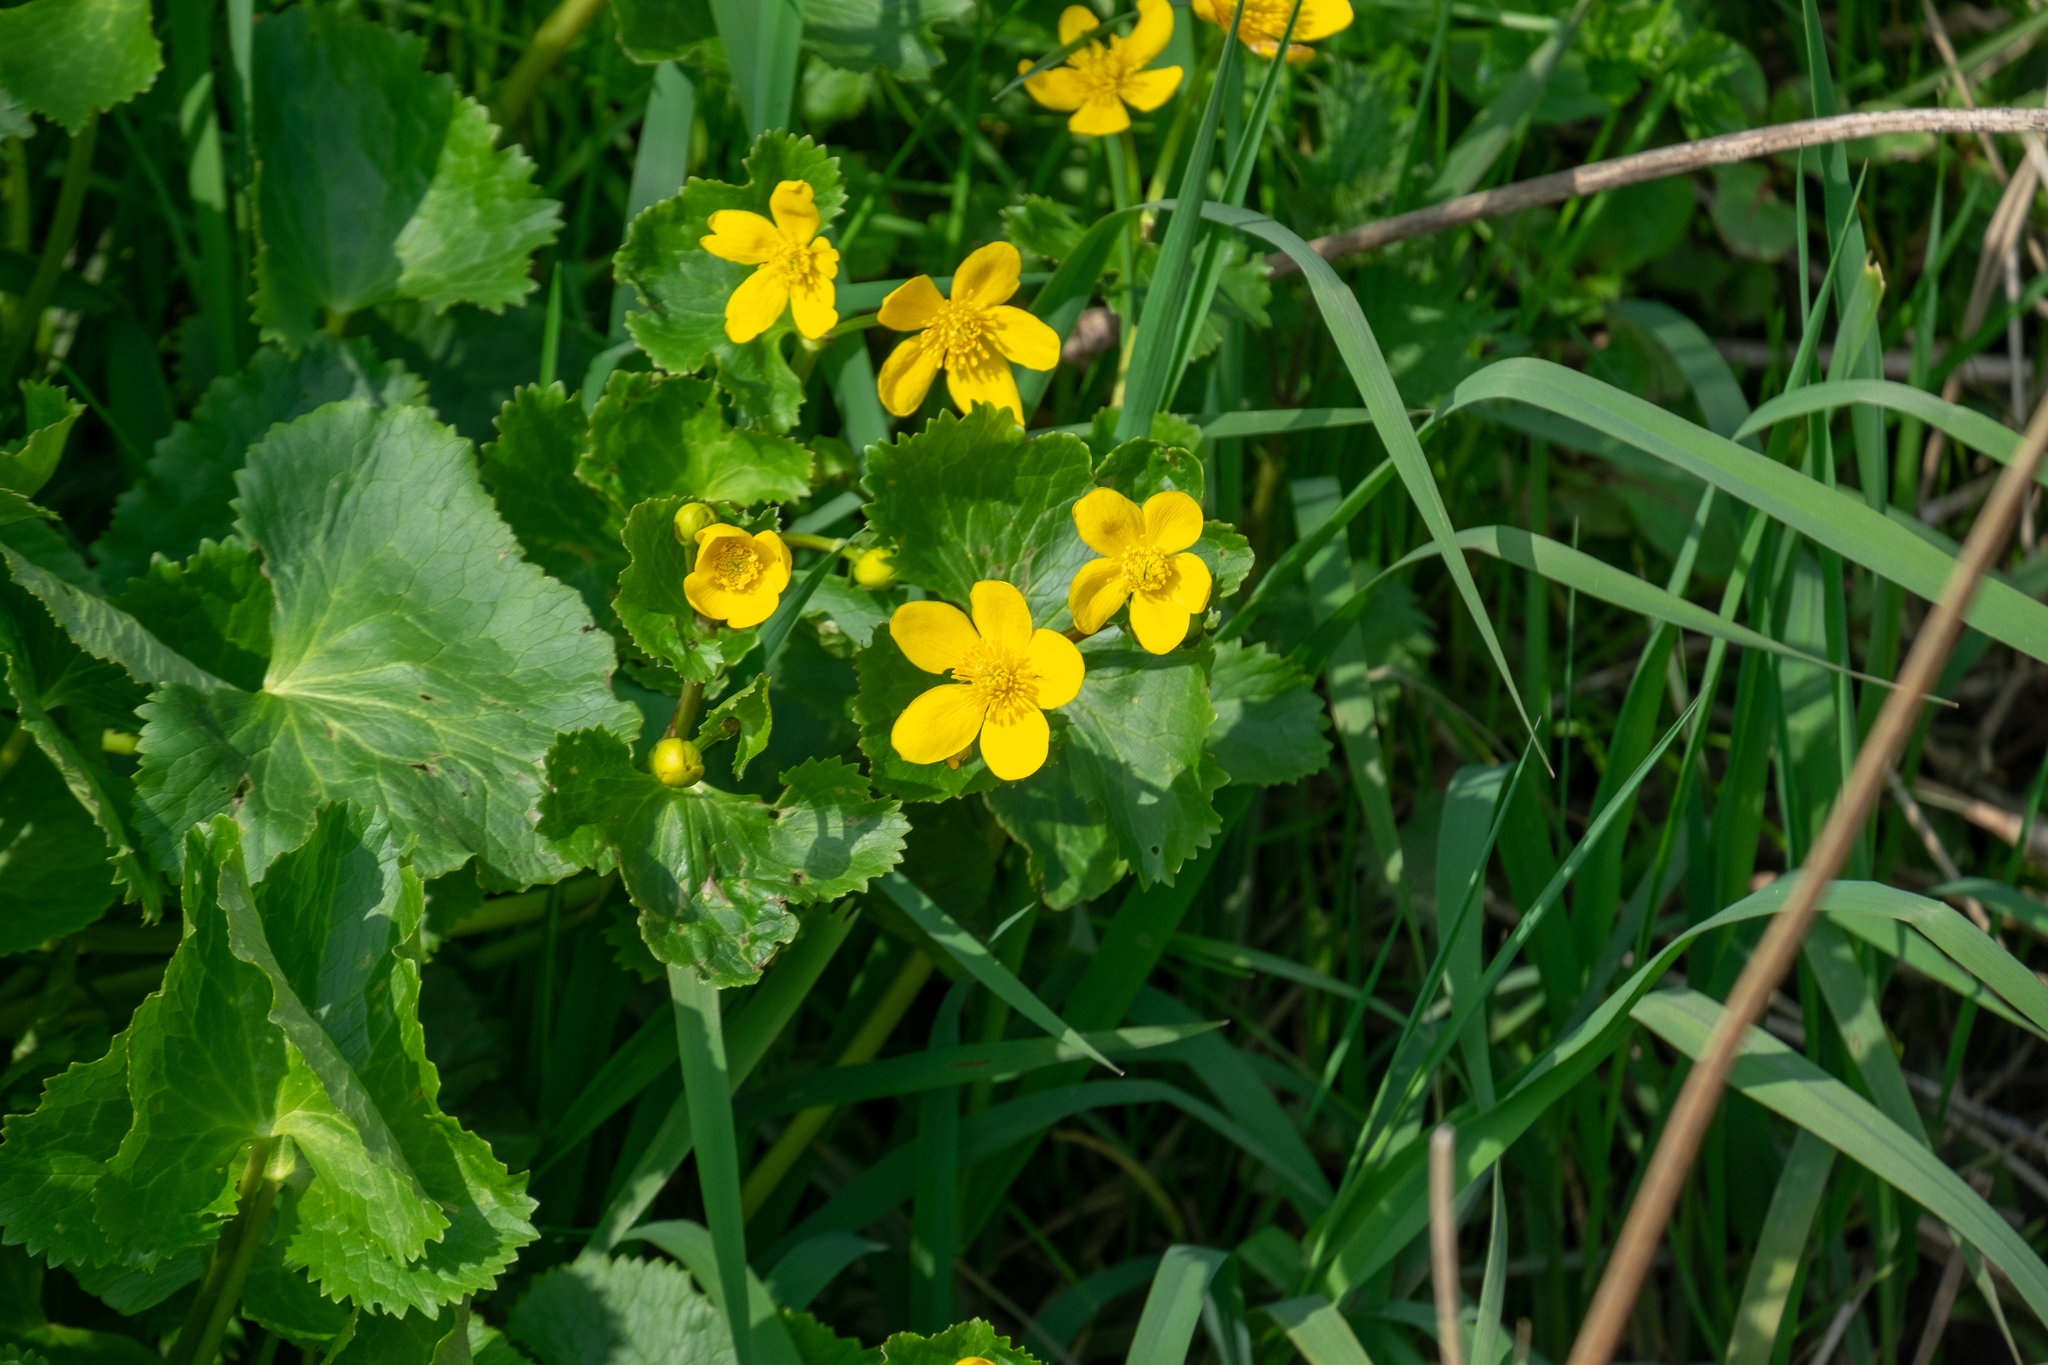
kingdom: Plantae
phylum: Tracheophyta
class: Magnoliopsida
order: Ranunculales
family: Ranunculaceae
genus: Caltha
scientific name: Caltha palustris
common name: Marsh marigold
